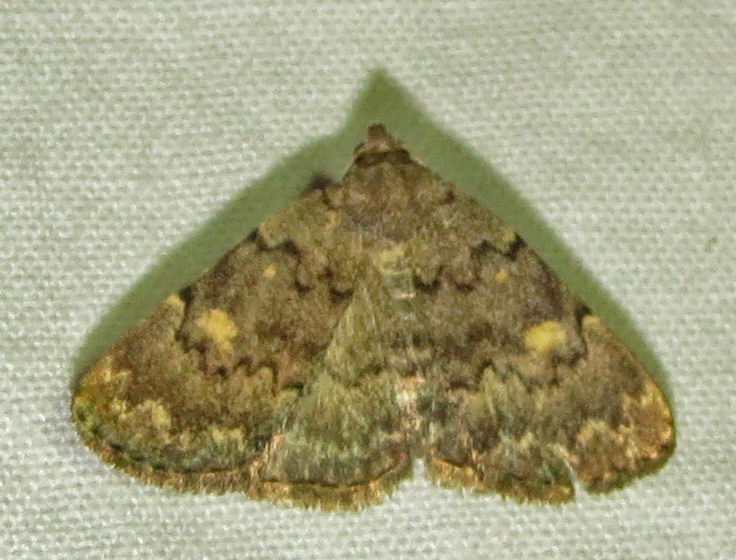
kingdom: Animalia
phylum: Arthropoda
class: Insecta
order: Lepidoptera
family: Erebidae
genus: Idia
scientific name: Idia aemula
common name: Common idia moth
